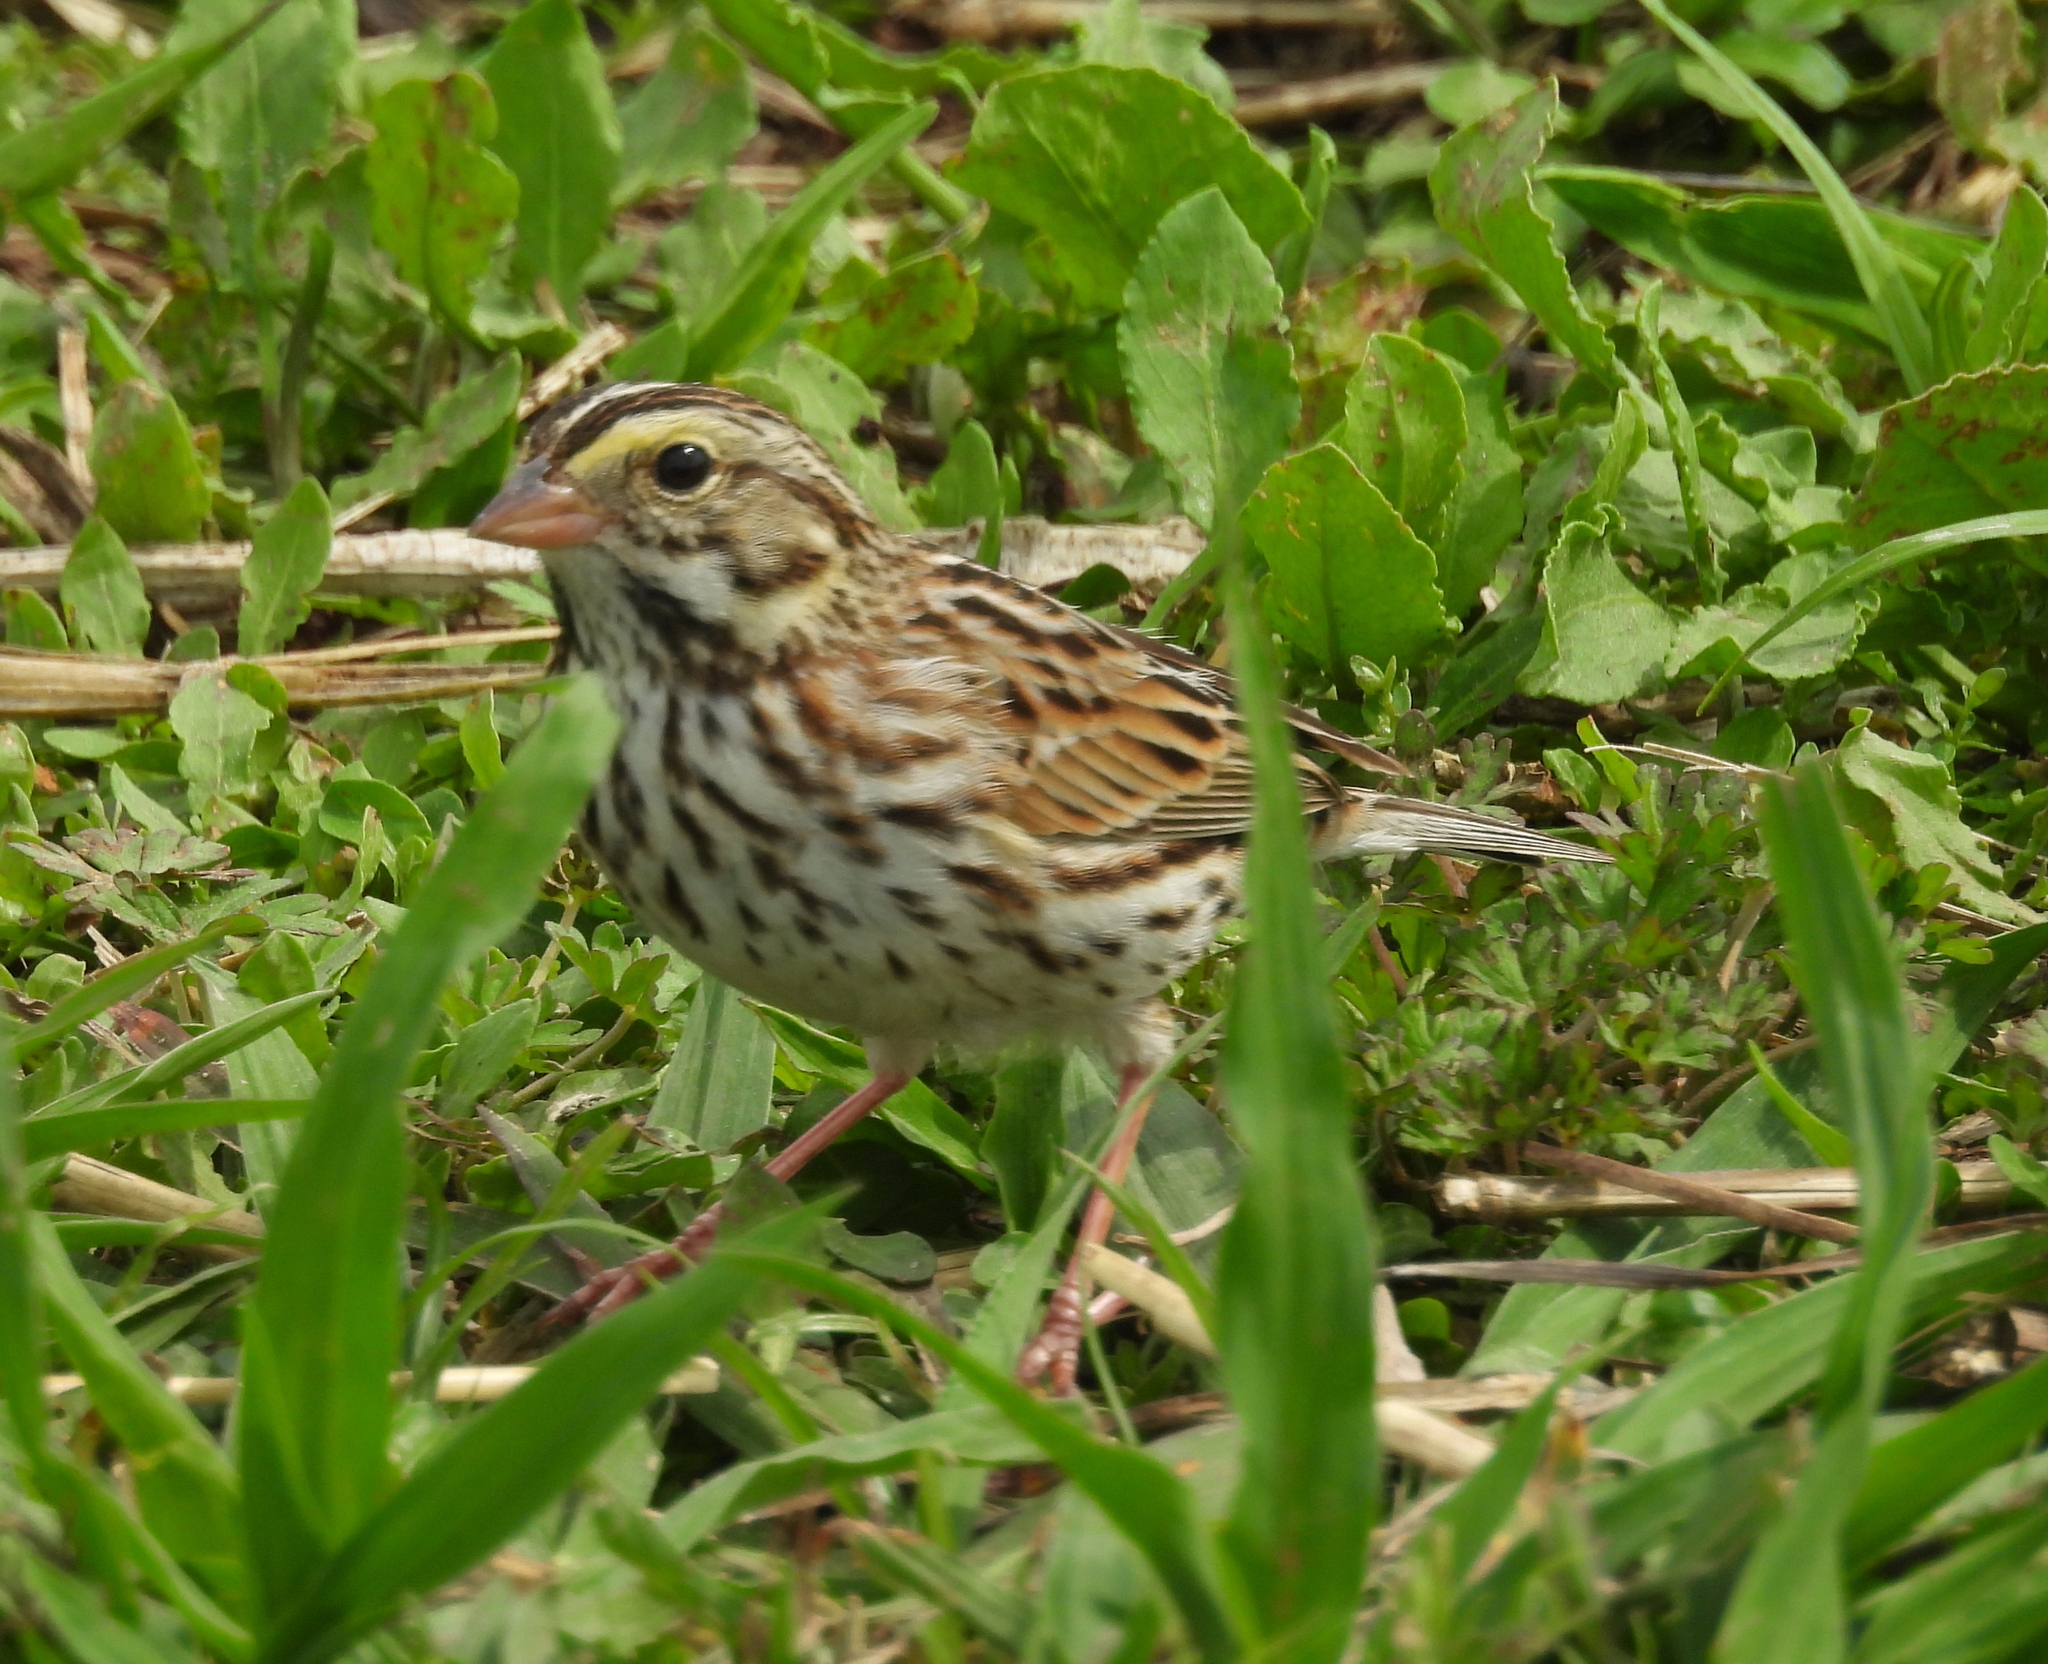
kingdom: Animalia
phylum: Chordata
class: Aves
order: Passeriformes
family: Passerellidae
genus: Passerculus
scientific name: Passerculus sandwichensis
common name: Savannah sparrow
